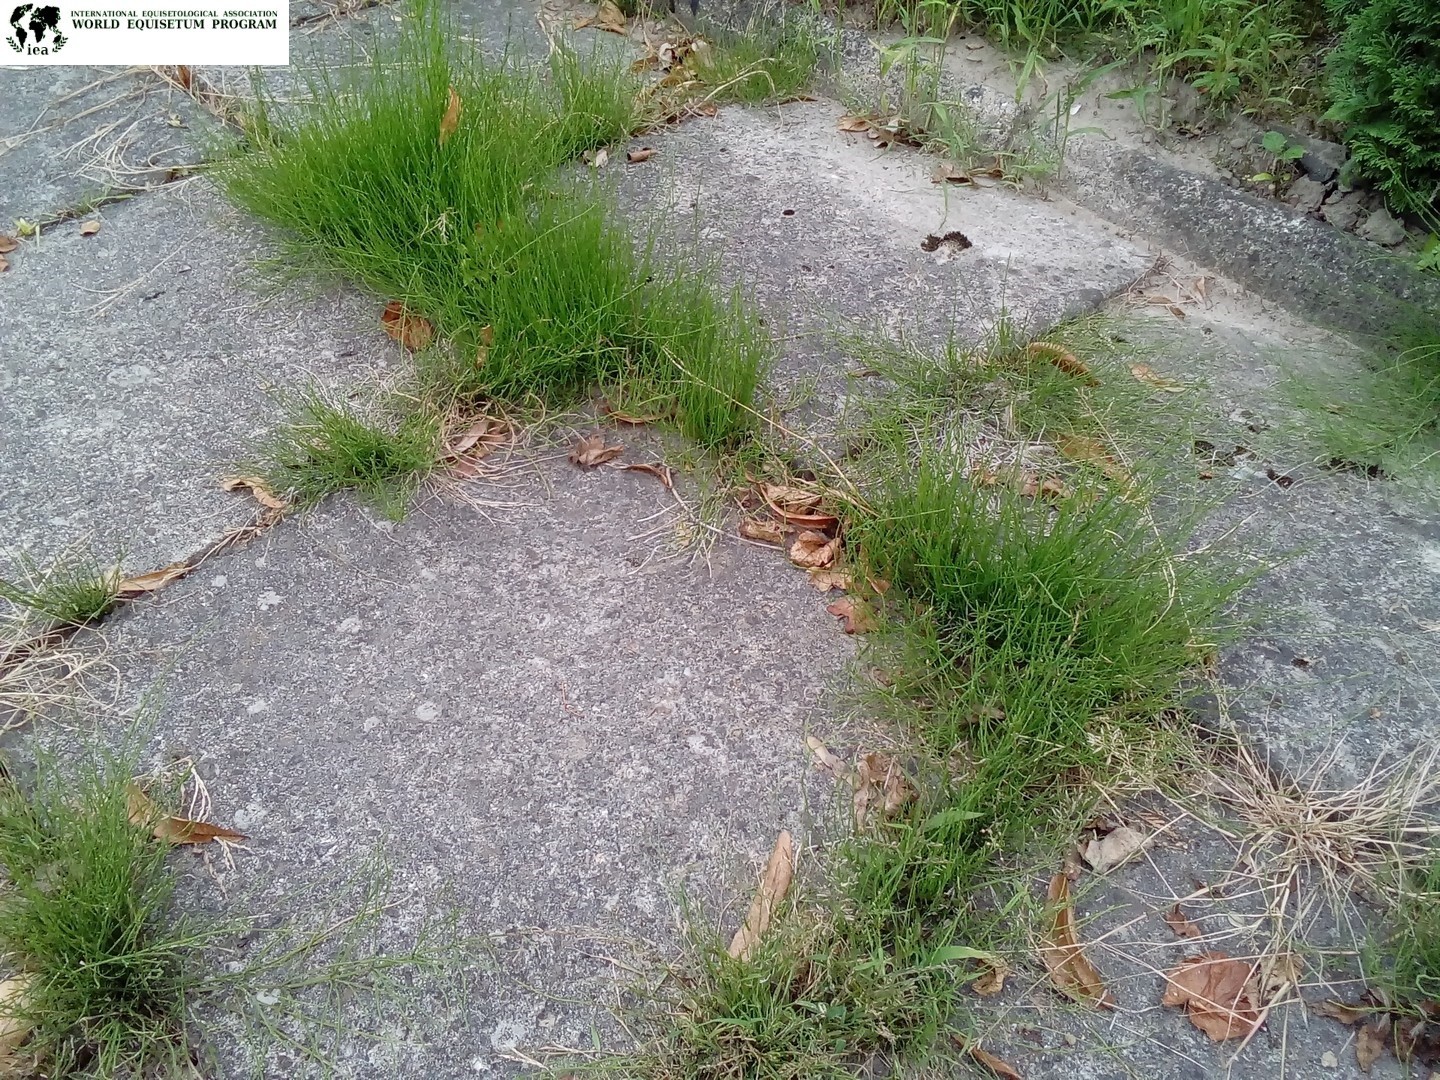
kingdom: Plantae
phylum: Tracheophyta
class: Polypodiopsida
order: Equisetales
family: Equisetaceae
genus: Equisetum
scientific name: Equisetum arvense
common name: Field horsetail
